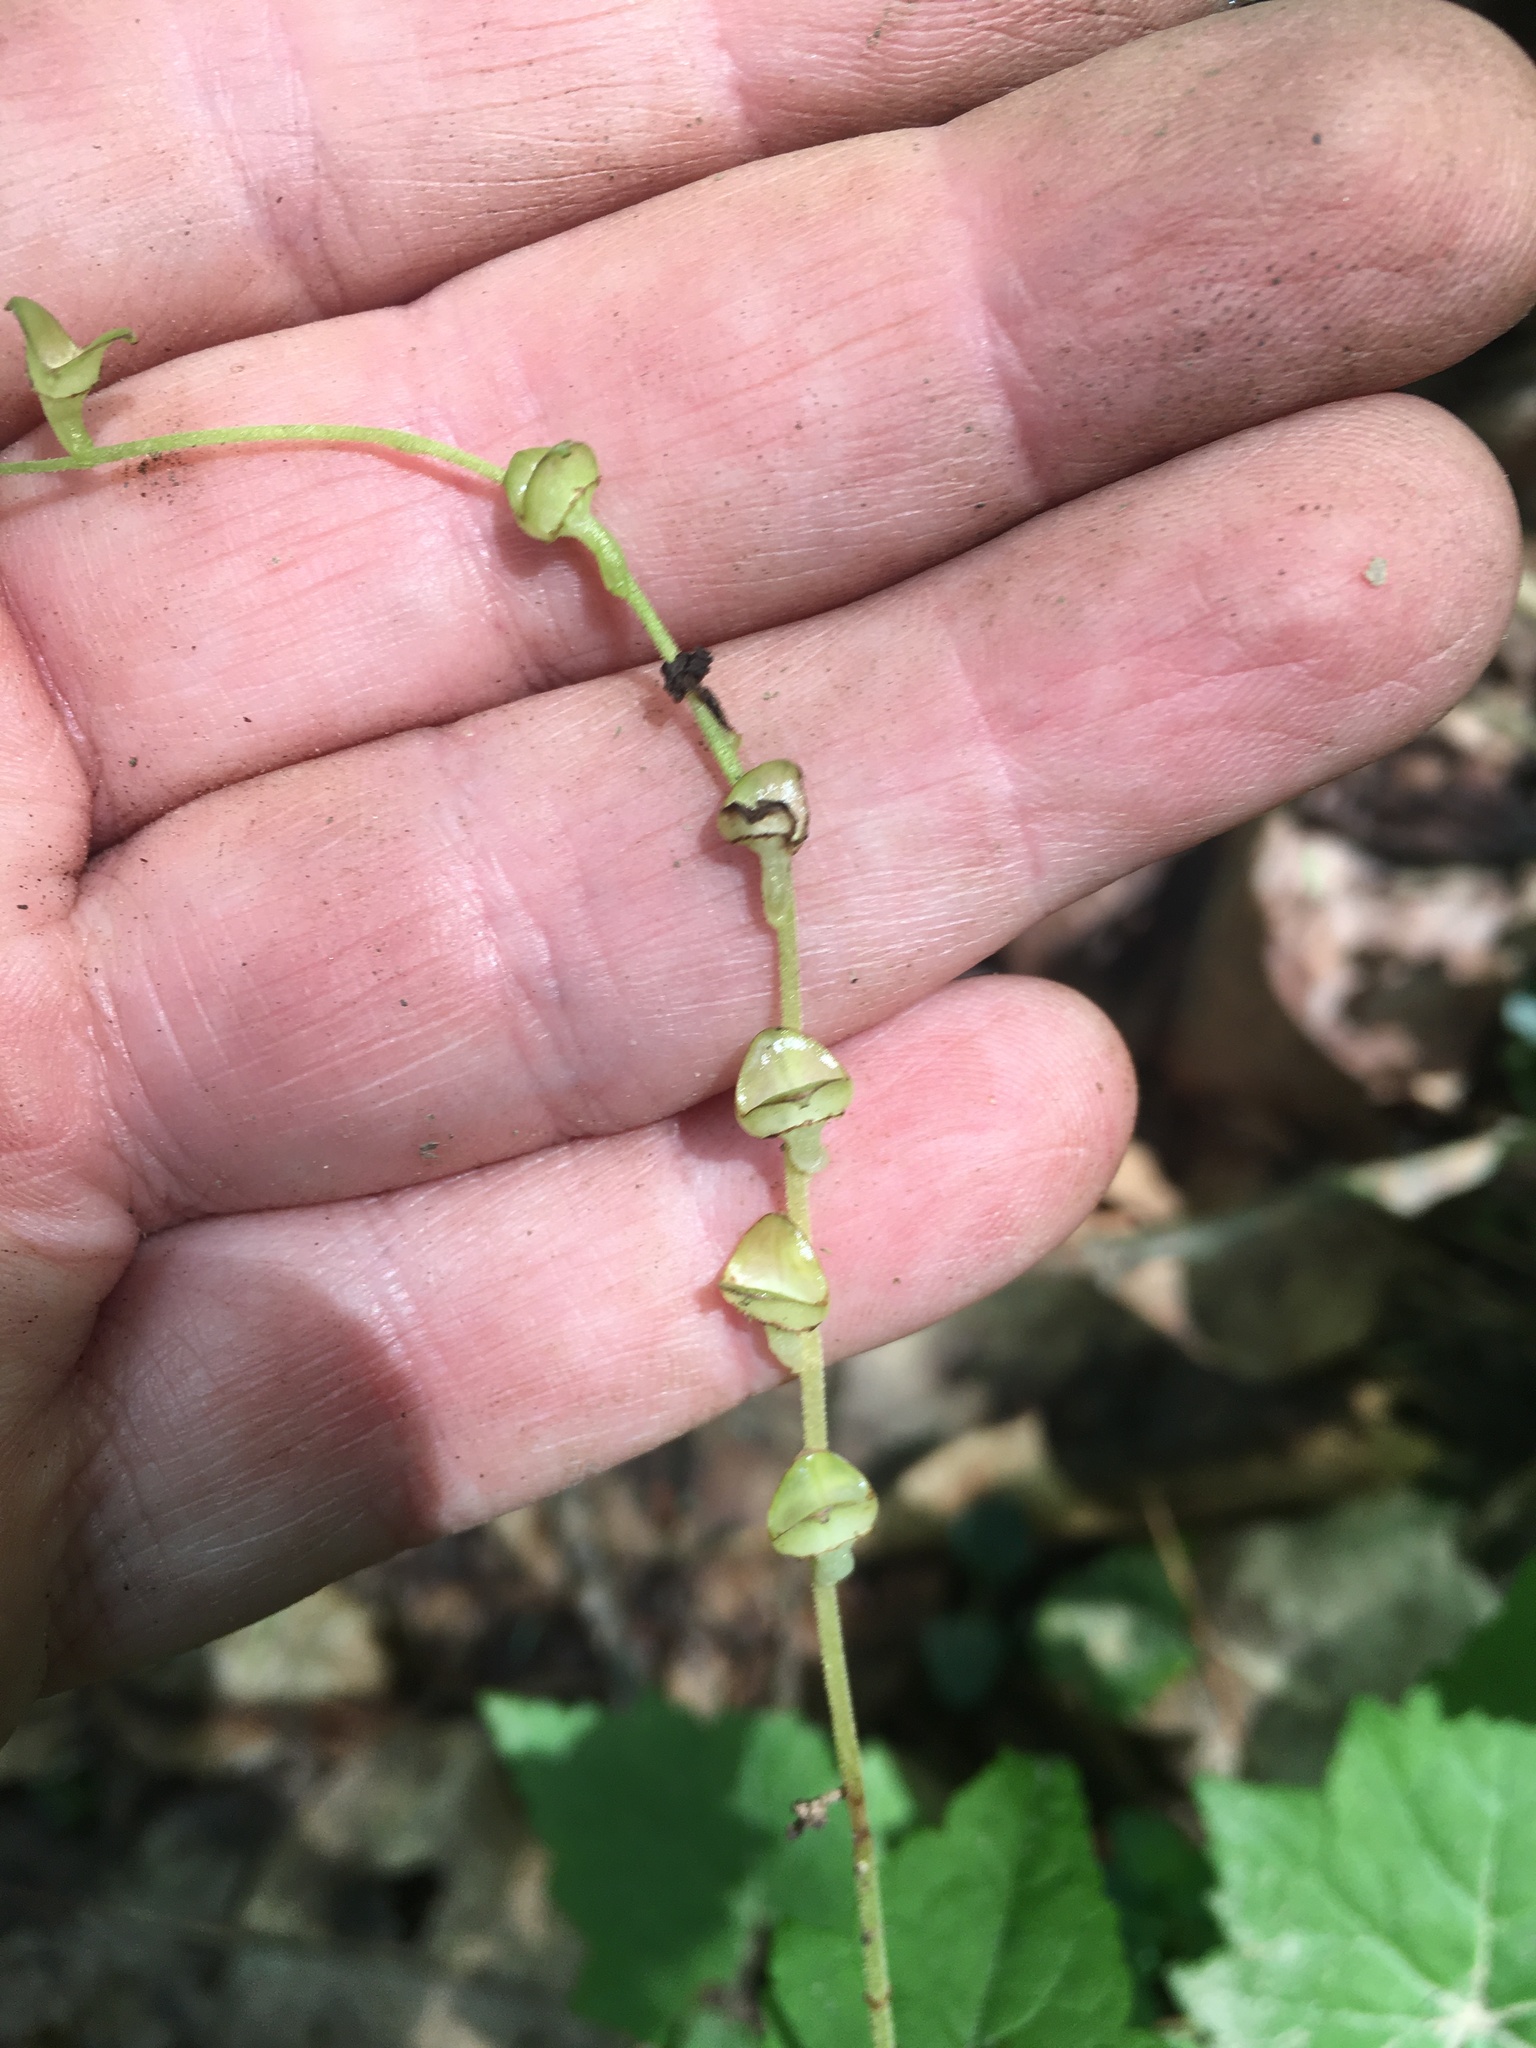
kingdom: Plantae
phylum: Tracheophyta
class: Magnoliopsida
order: Saxifragales
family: Saxifragaceae
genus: Mitella
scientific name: Mitella diphylla
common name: Coolwort
